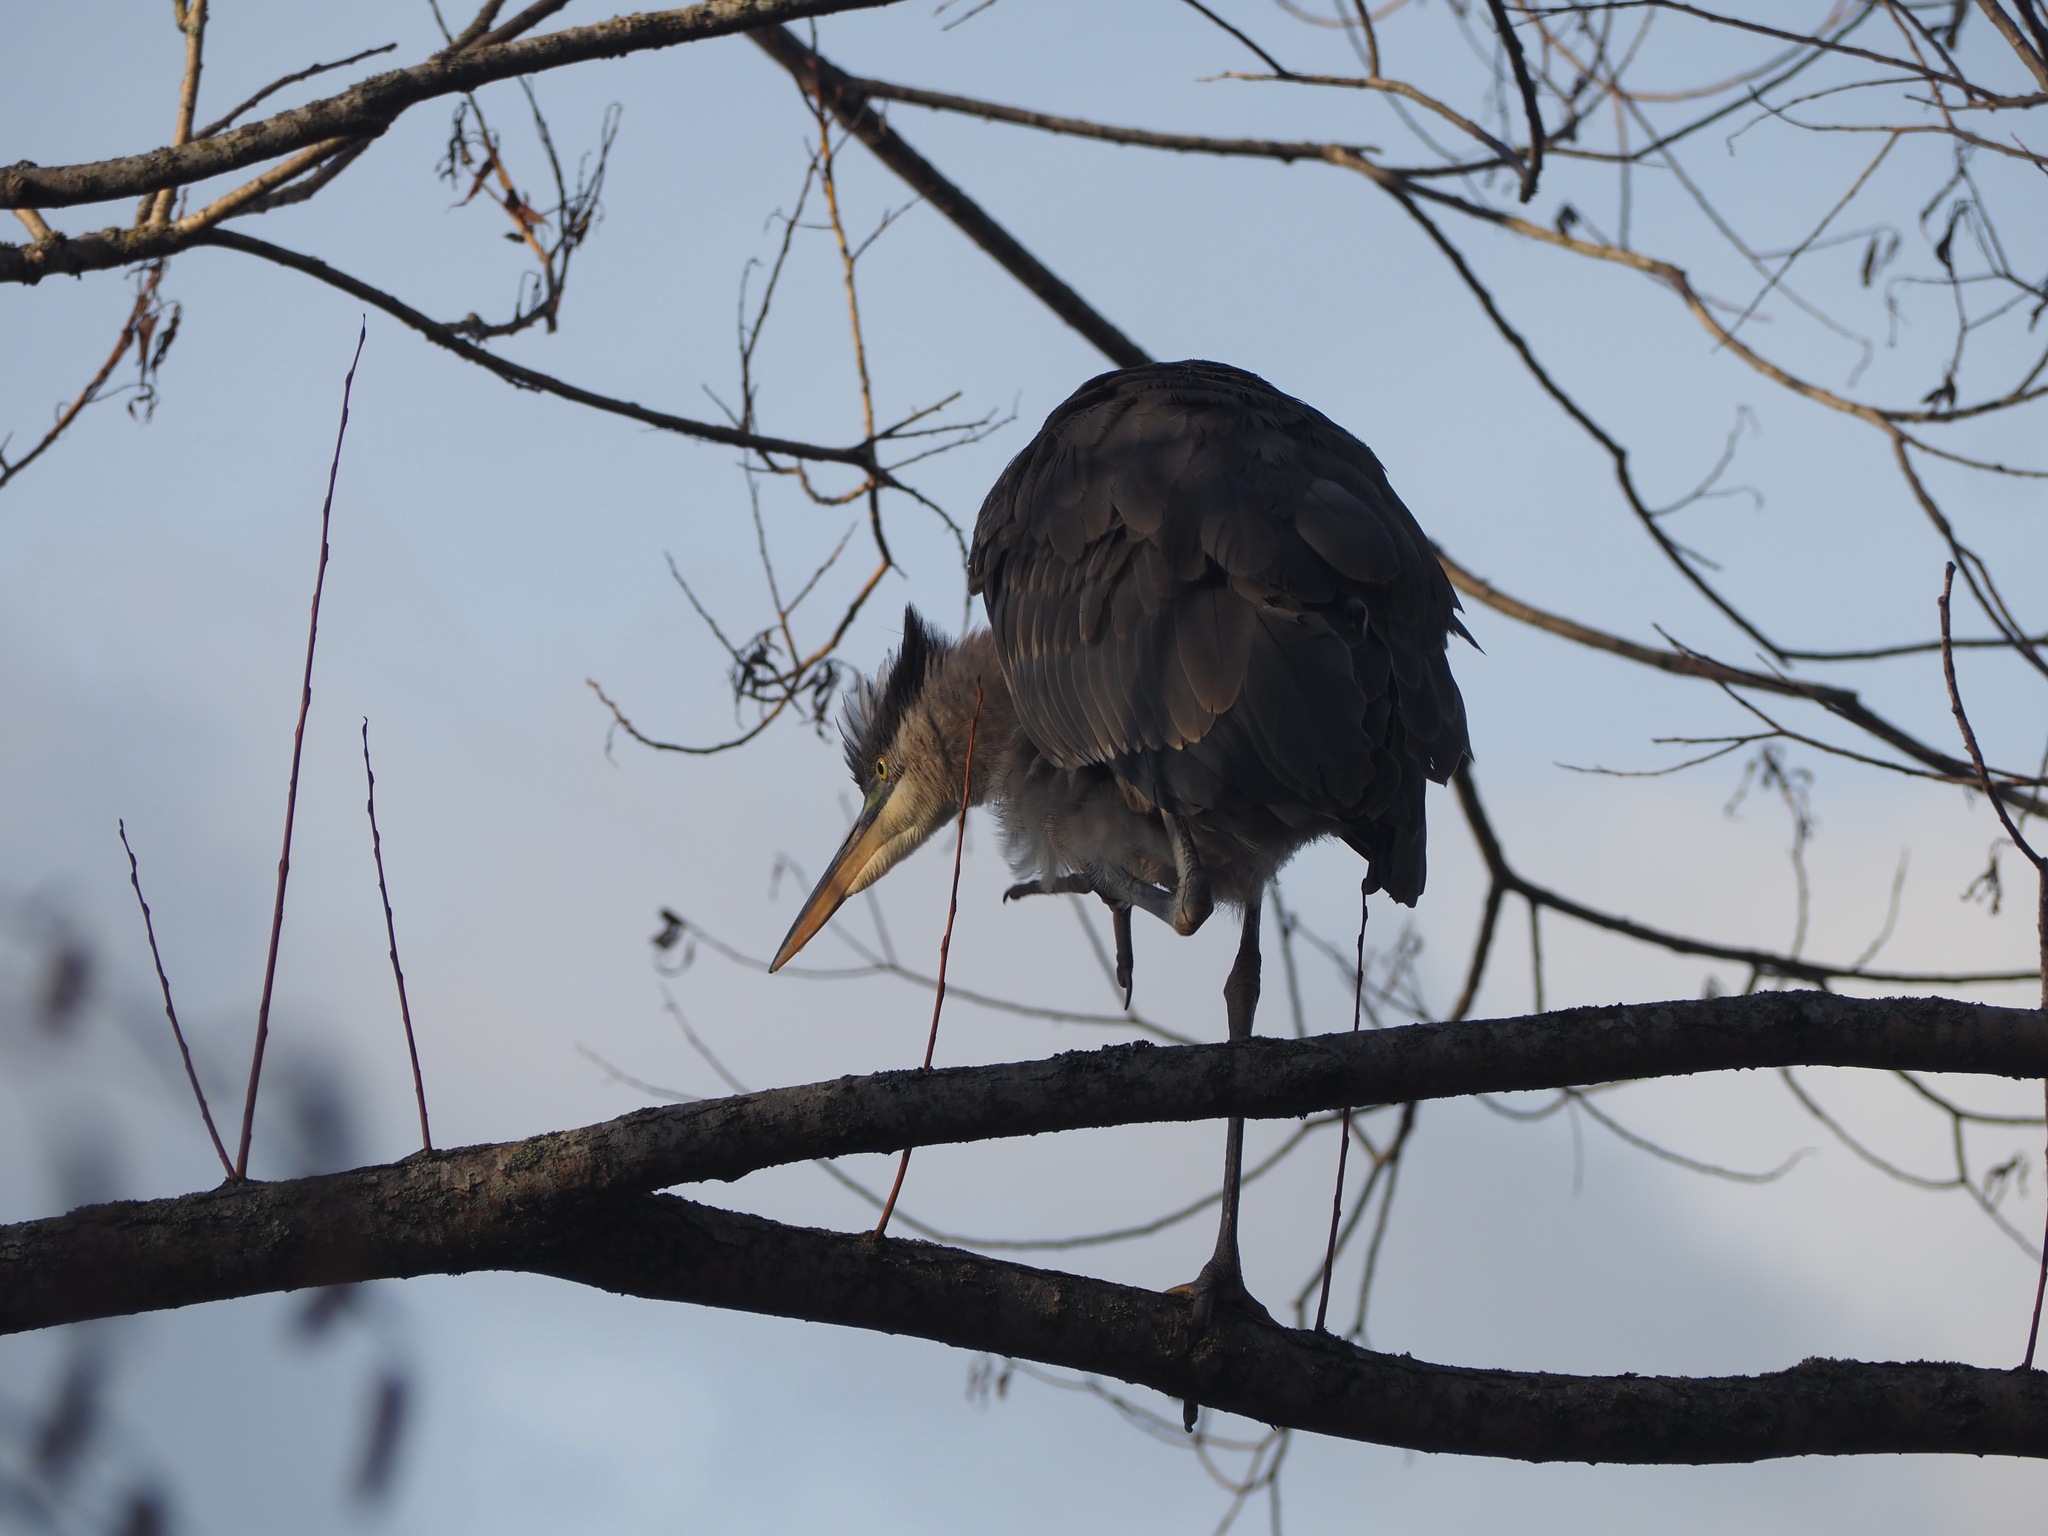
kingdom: Animalia
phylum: Chordata
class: Aves
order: Pelecaniformes
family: Ardeidae
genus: Ardea
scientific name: Ardea herodias
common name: Great blue heron
